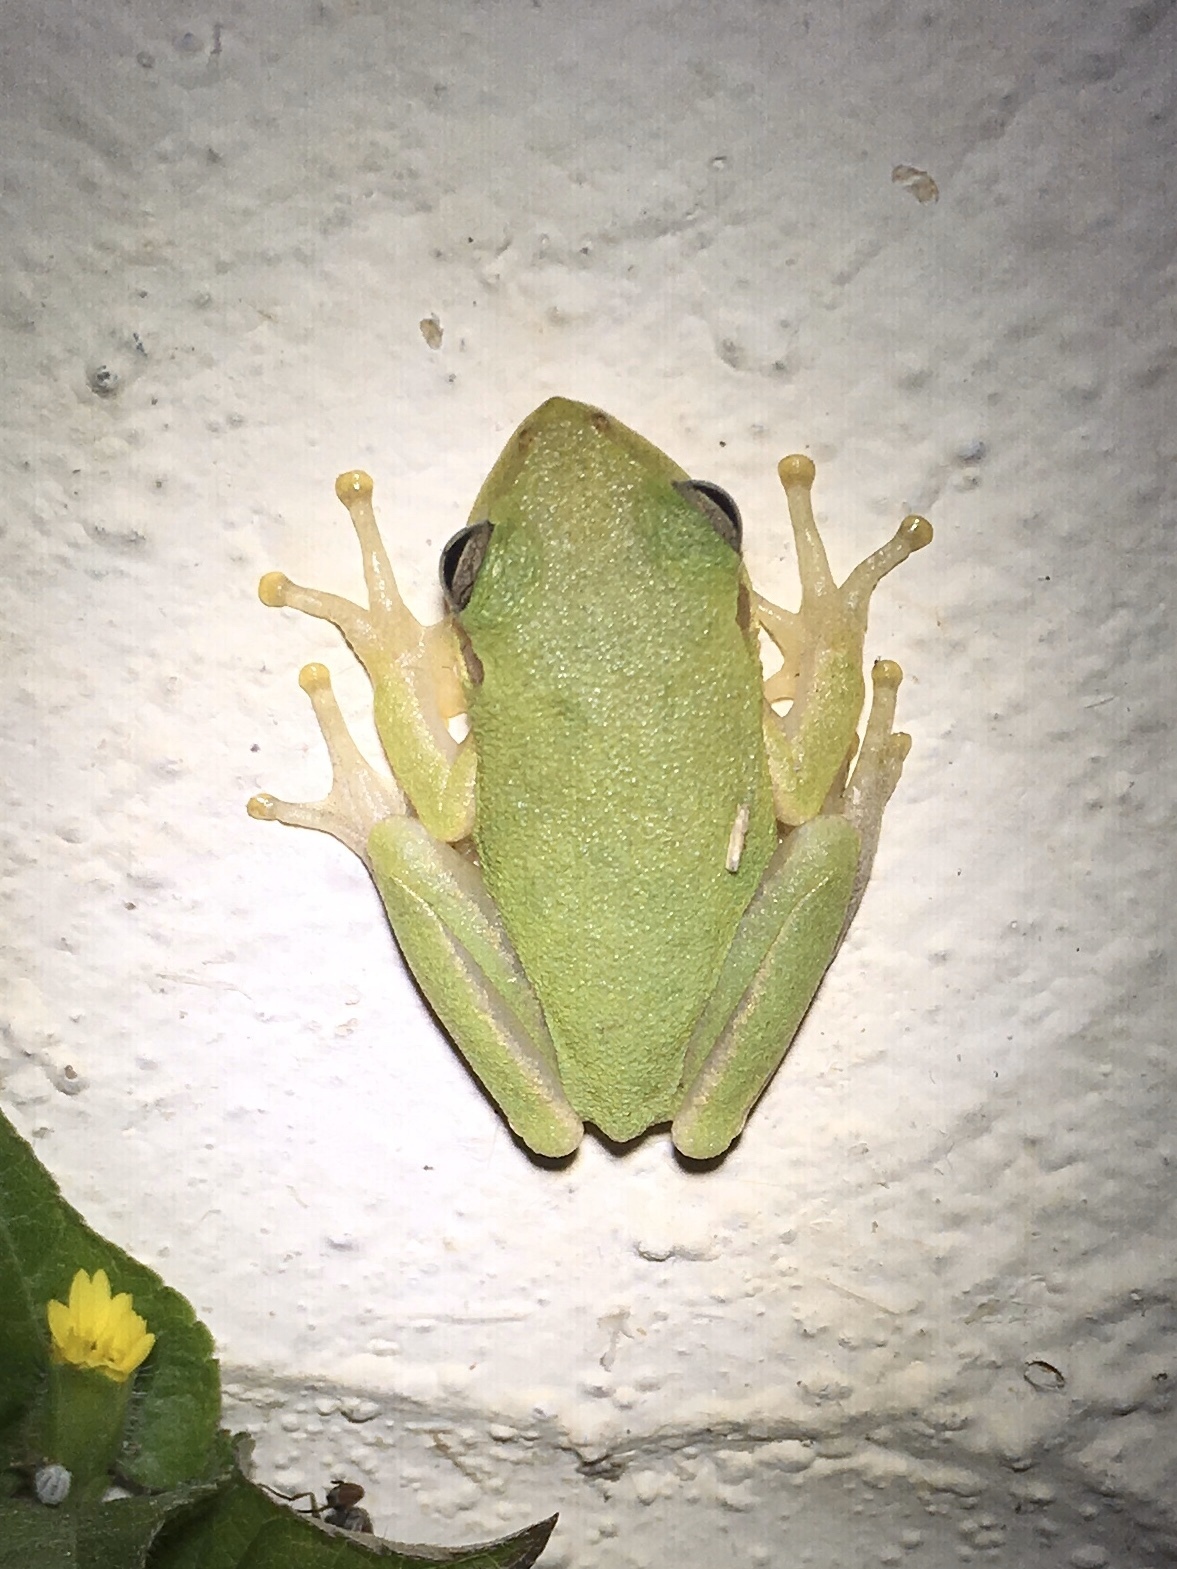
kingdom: Animalia
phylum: Chordata
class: Amphibia
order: Anura
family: Hylidae
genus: Dryophytes
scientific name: Dryophytes squirellus
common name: Squirrel treefrog
